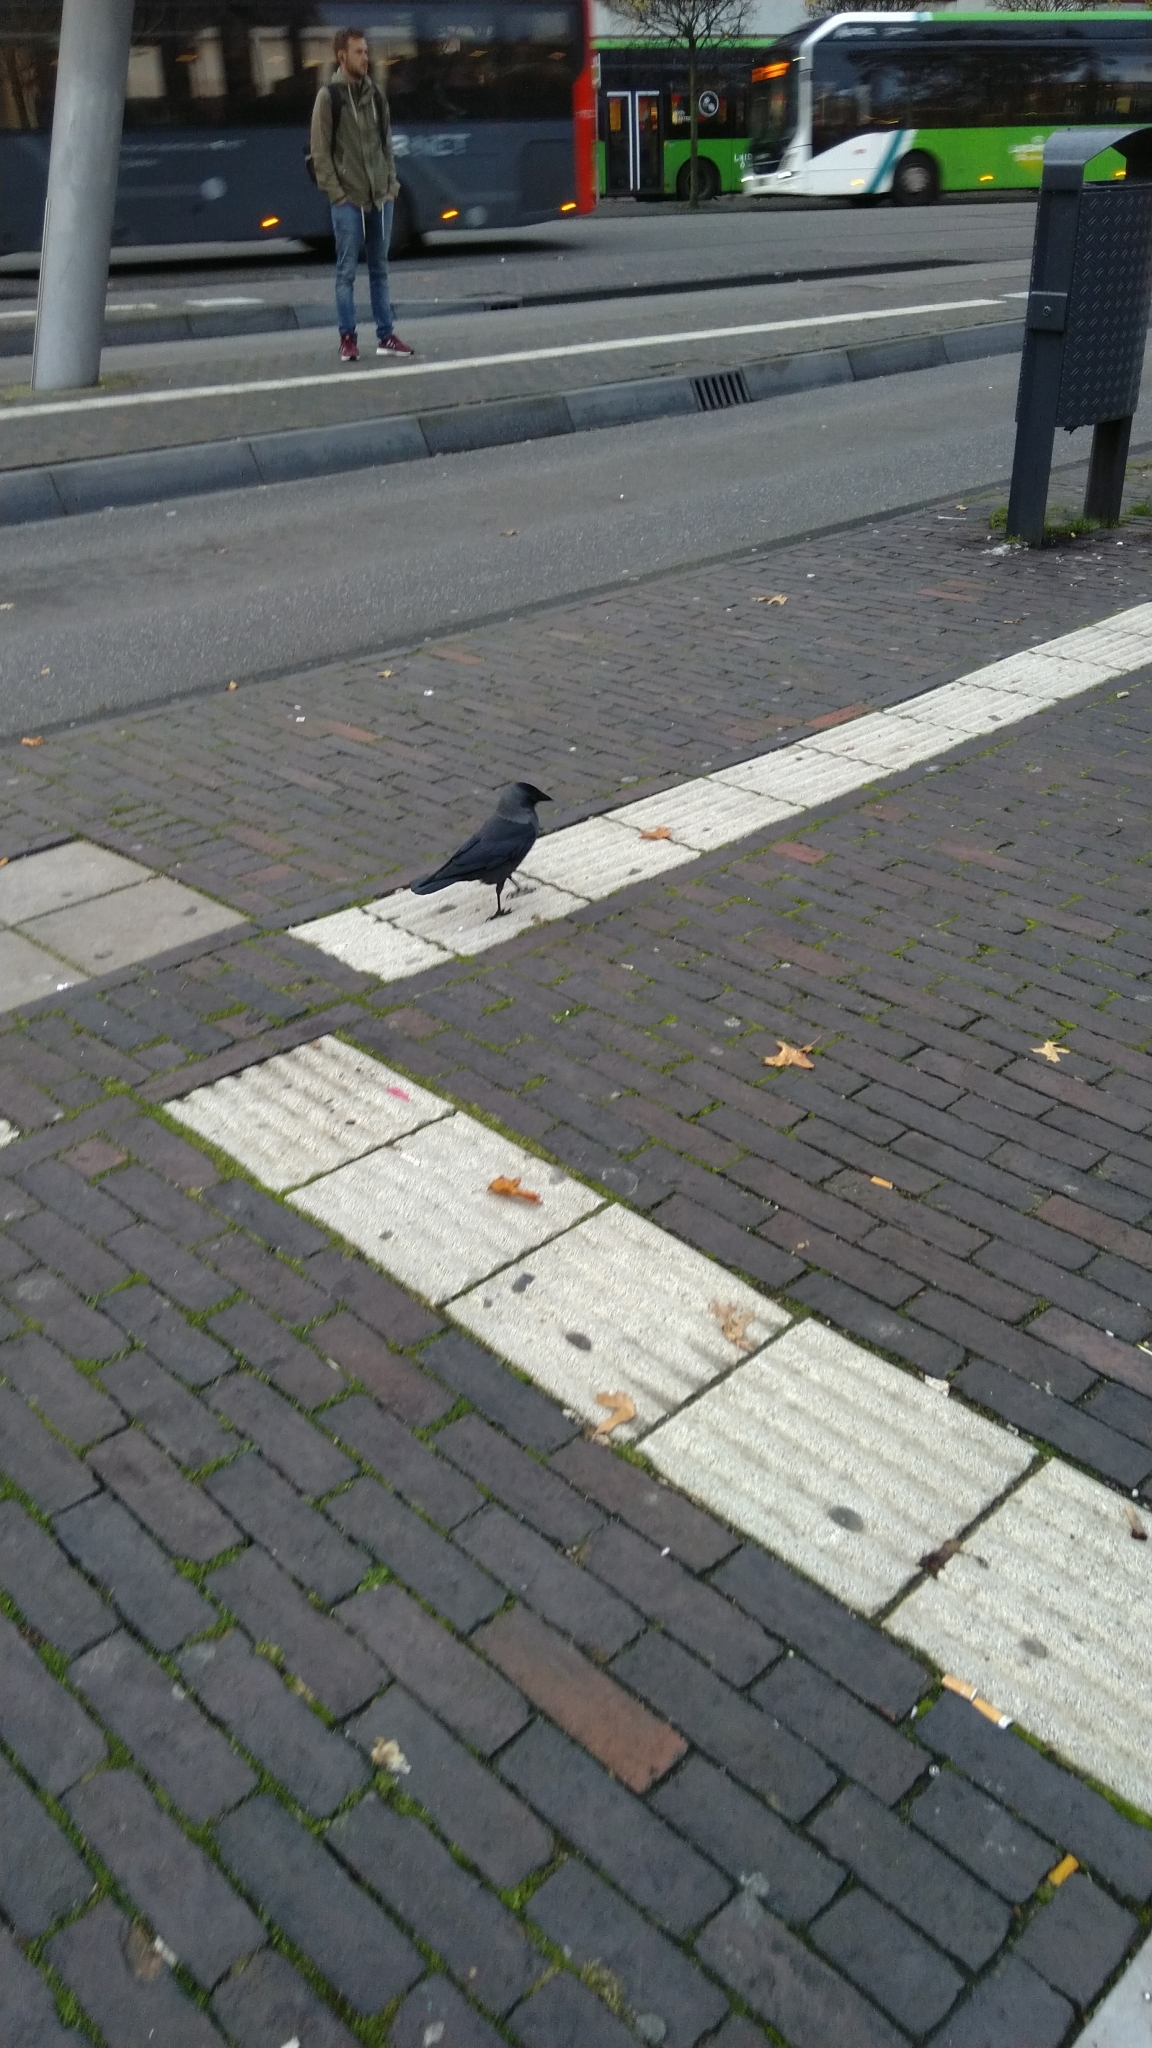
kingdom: Animalia
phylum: Chordata
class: Aves
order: Passeriformes
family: Corvidae
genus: Coloeus
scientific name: Coloeus monedula
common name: Western jackdaw
